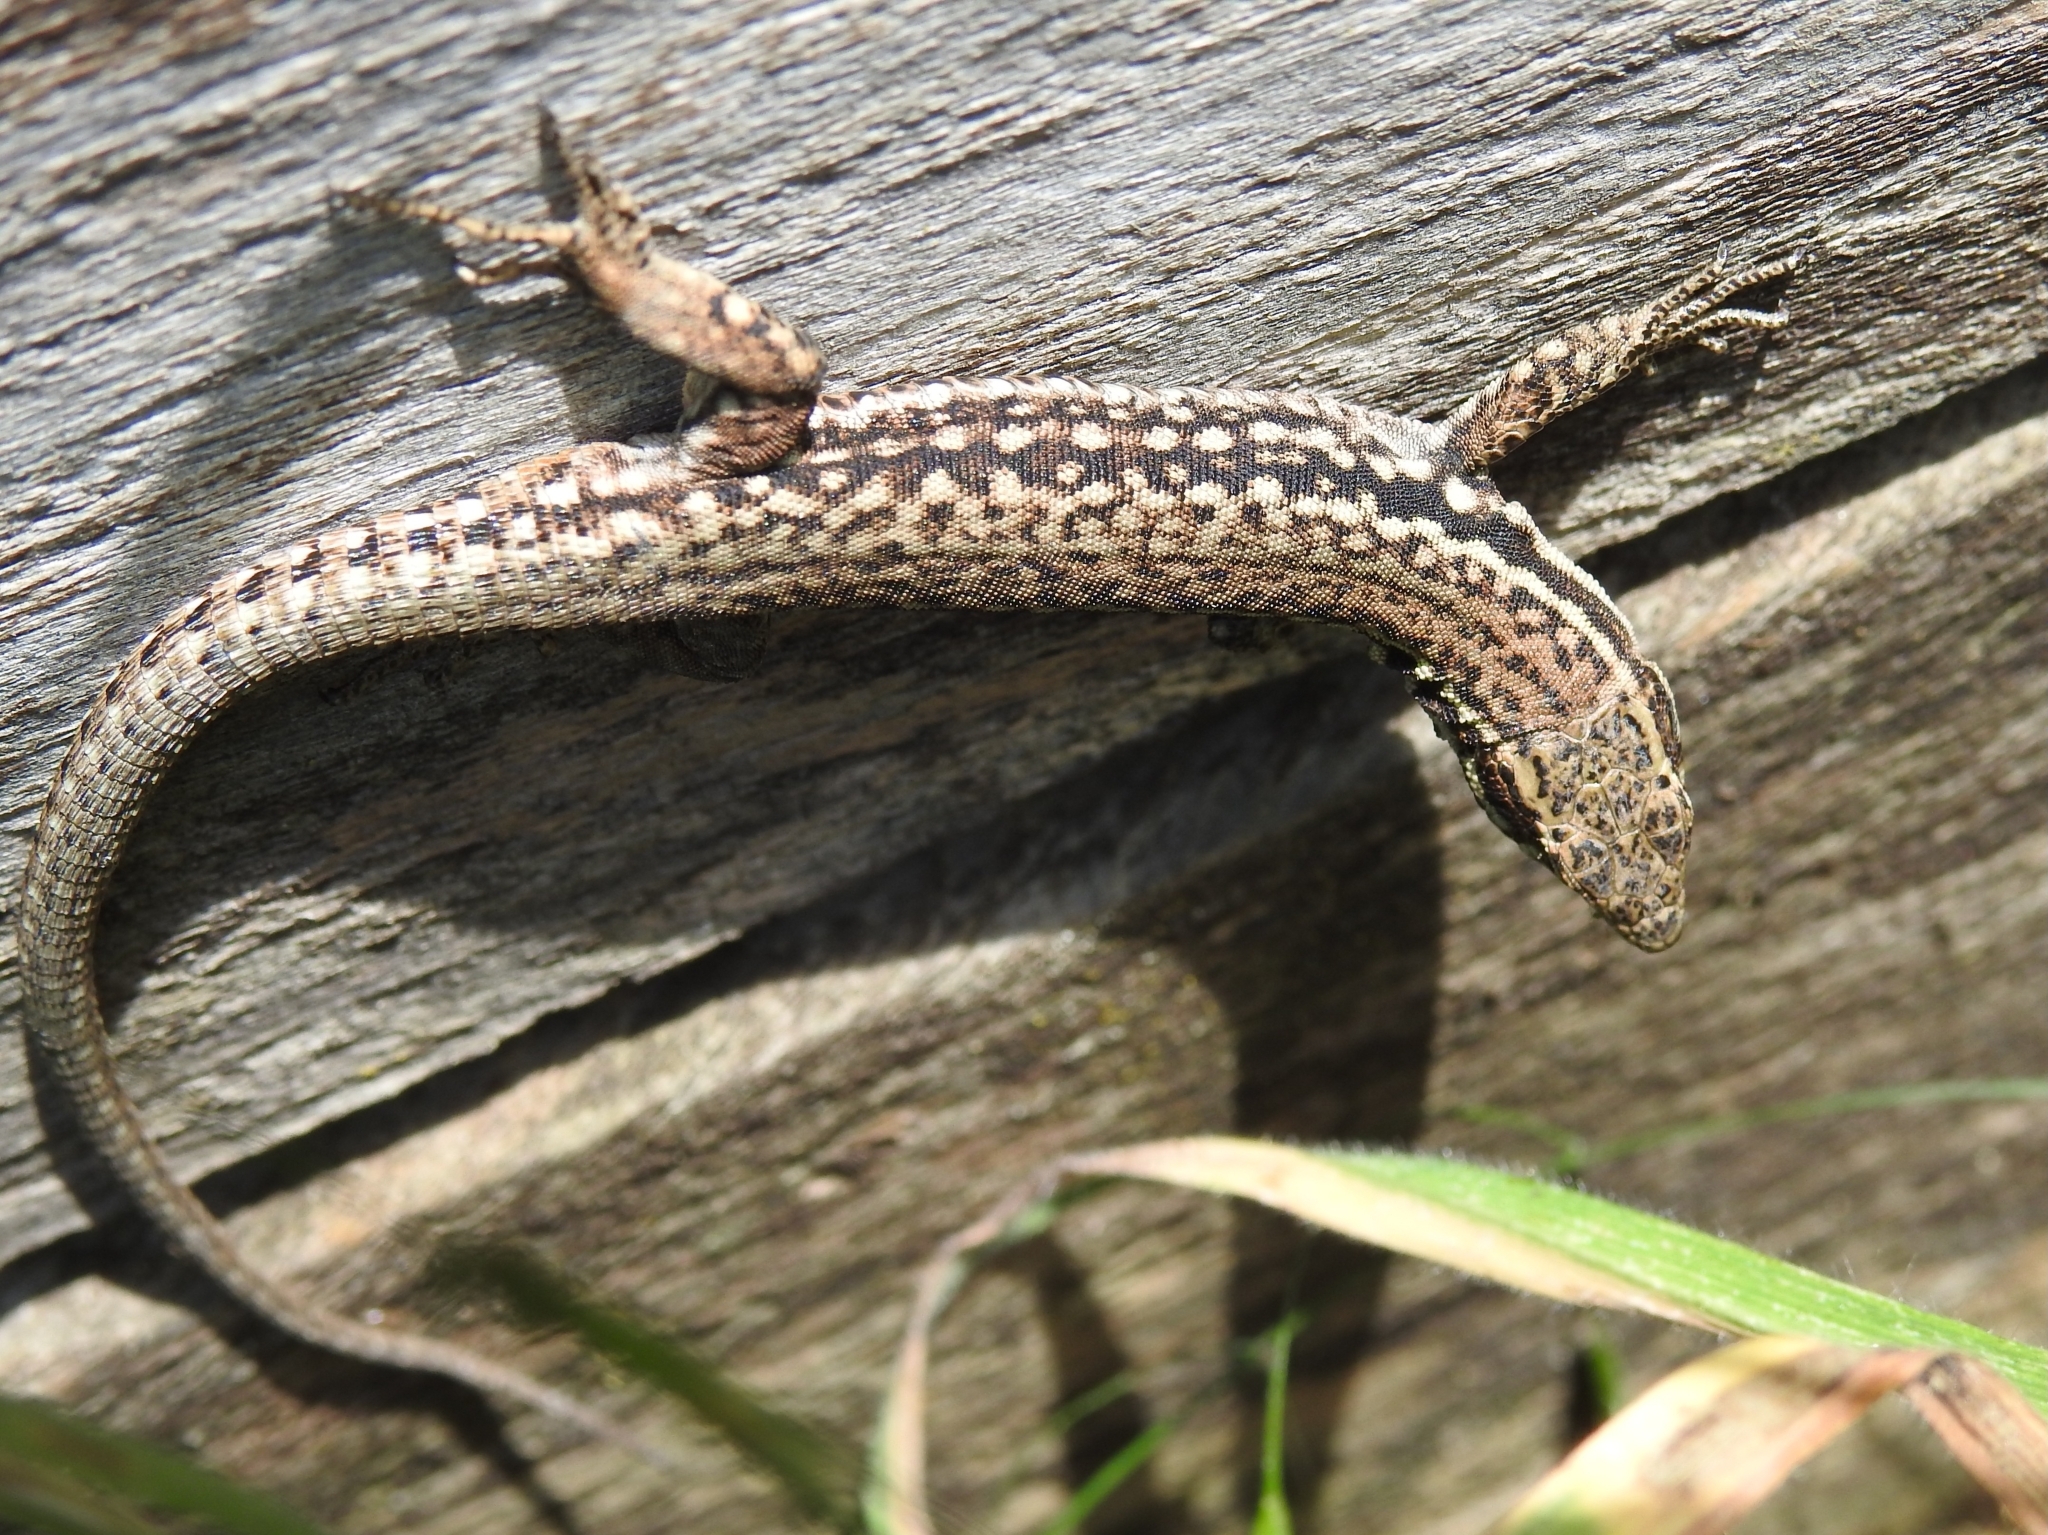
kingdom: Animalia
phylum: Chordata
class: Squamata
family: Lacertidae
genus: Podarcis
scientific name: Podarcis muralis
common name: Common wall lizard
